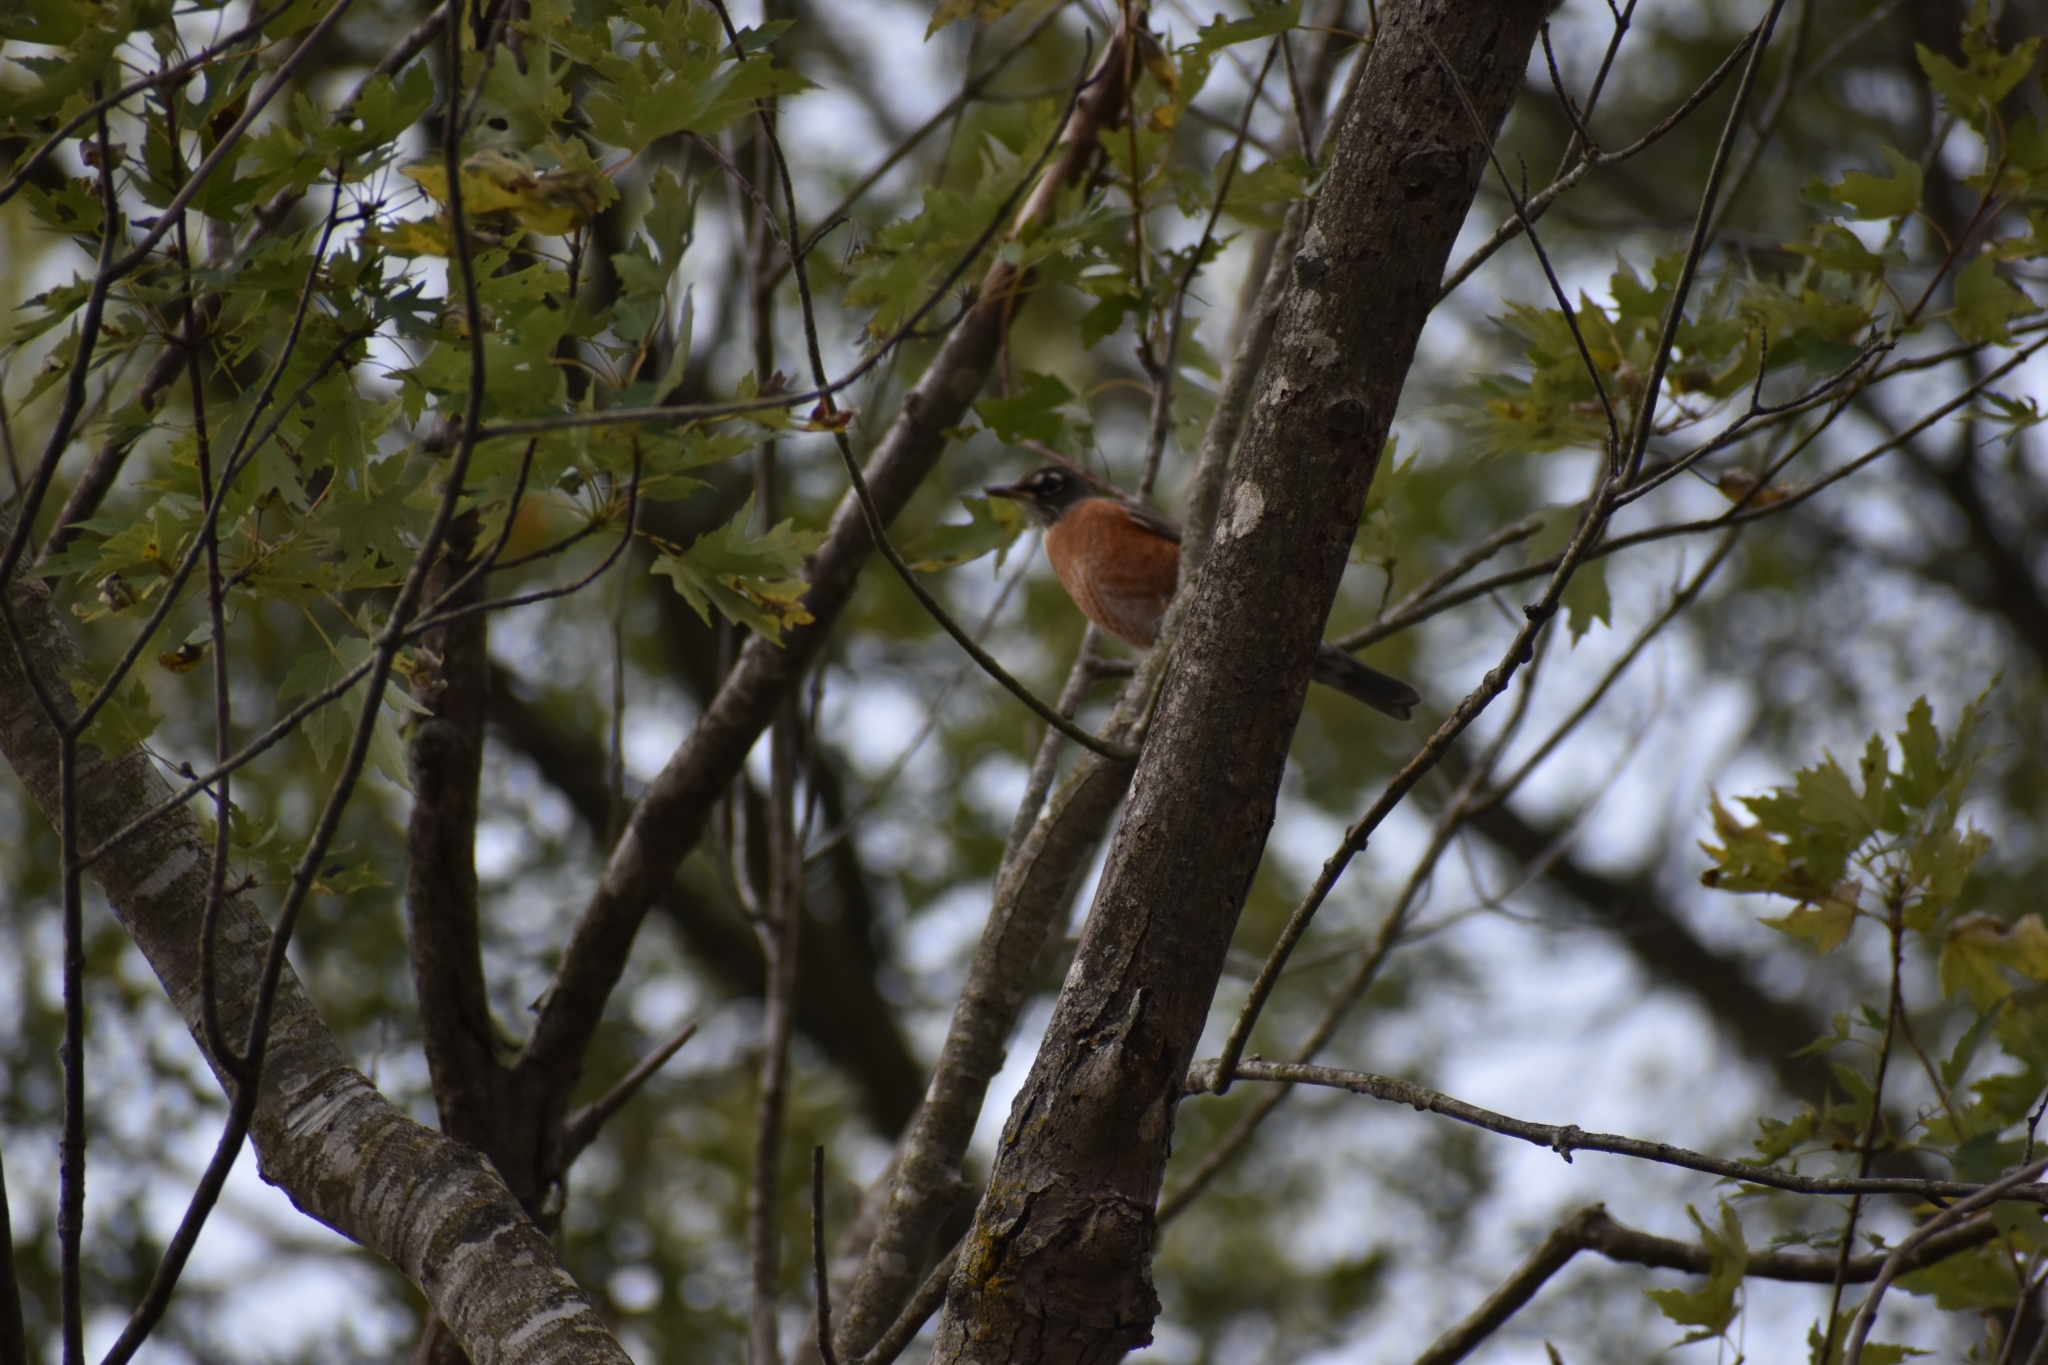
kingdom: Animalia
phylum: Chordata
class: Aves
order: Passeriformes
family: Turdidae
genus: Turdus
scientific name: Turdus migratorius
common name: American robin
